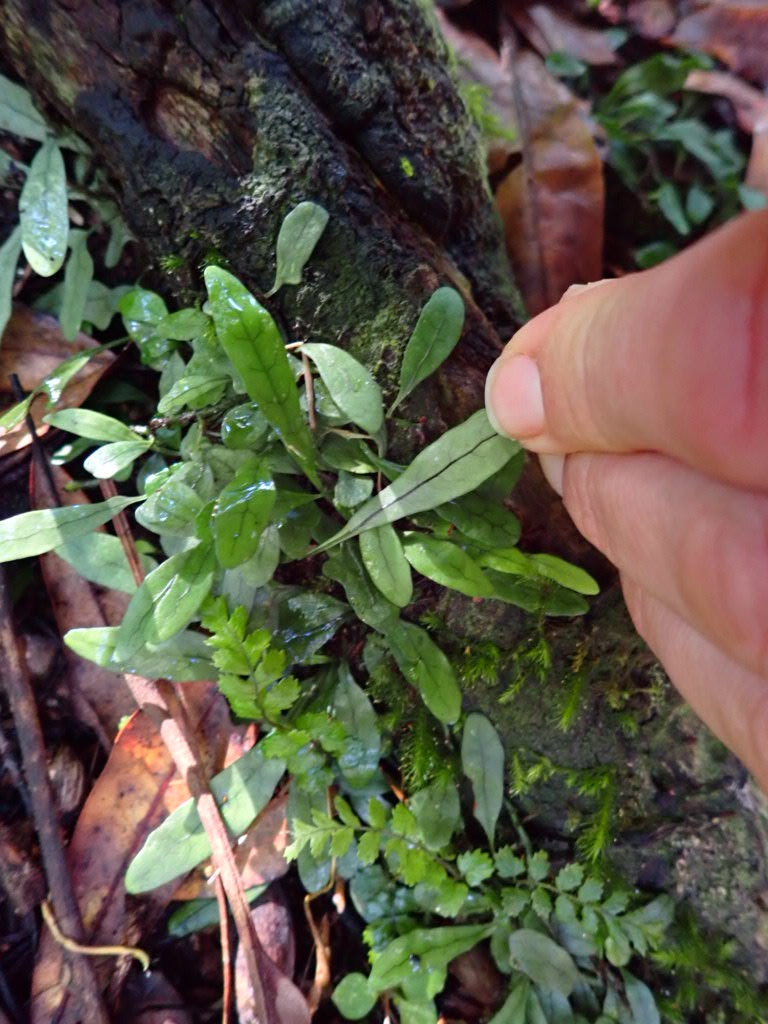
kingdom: Plantae
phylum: Tracheophyta
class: Polypodiopsida
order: Polypodiales
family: Polypodiaceae
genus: Lecanopteris
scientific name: Lecanopteris scandens
